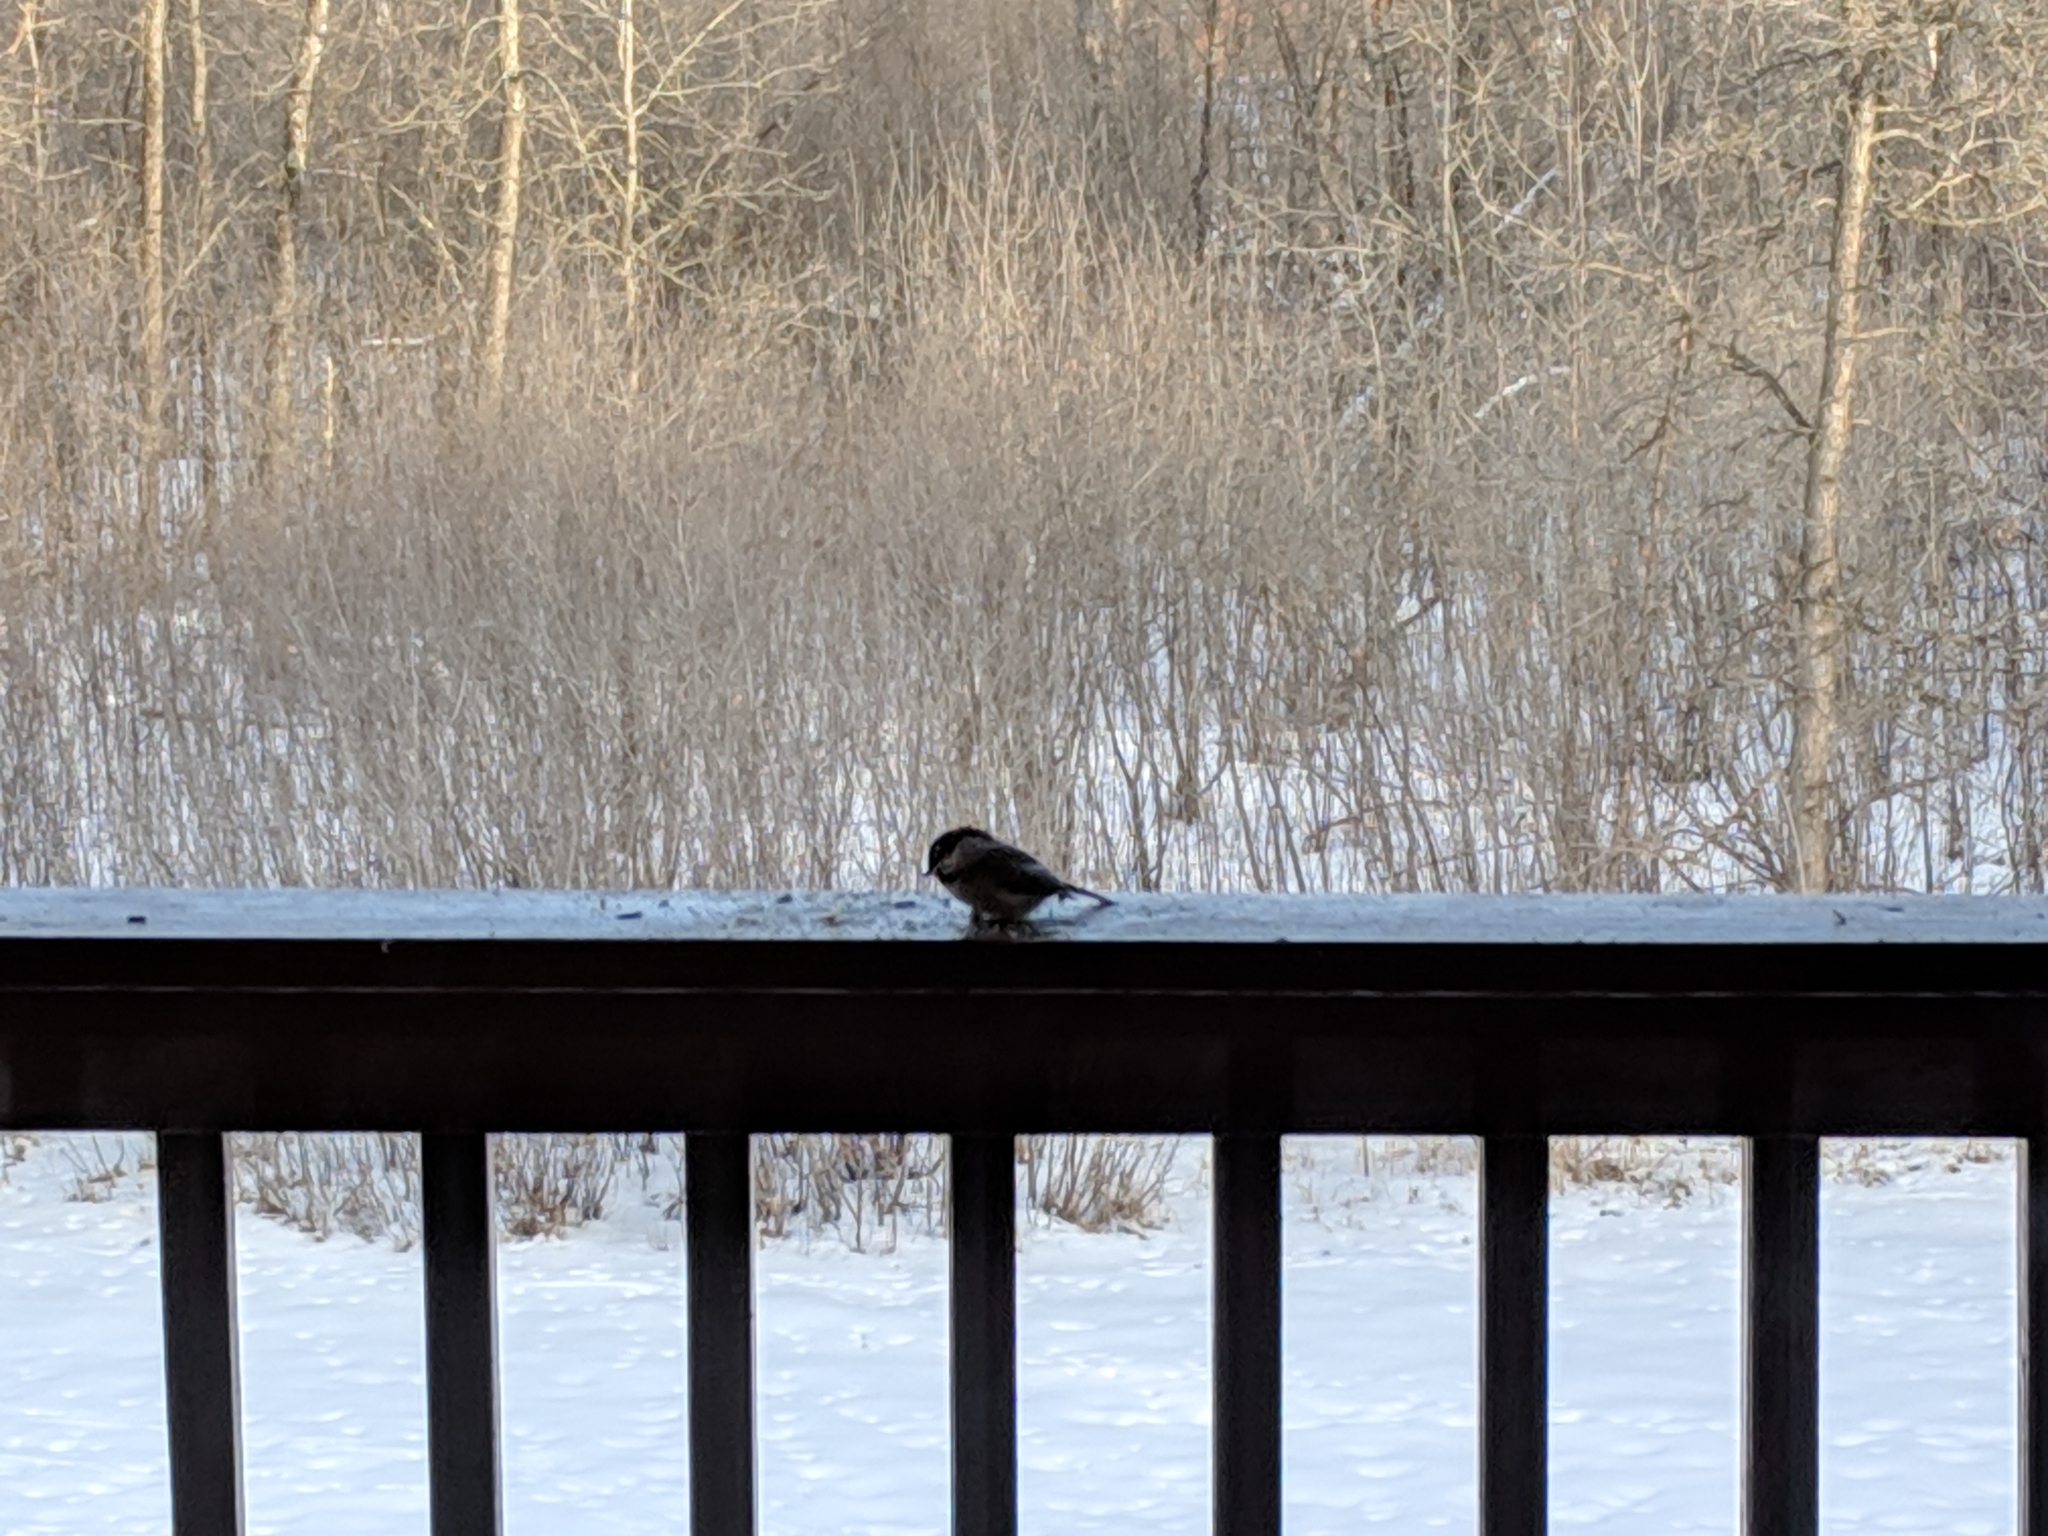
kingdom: Animalia
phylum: Chordata
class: Aves
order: Passeriformes
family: Paridae
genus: Poecile
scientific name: Poecile atricapillus
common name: Black-capped chickadee
